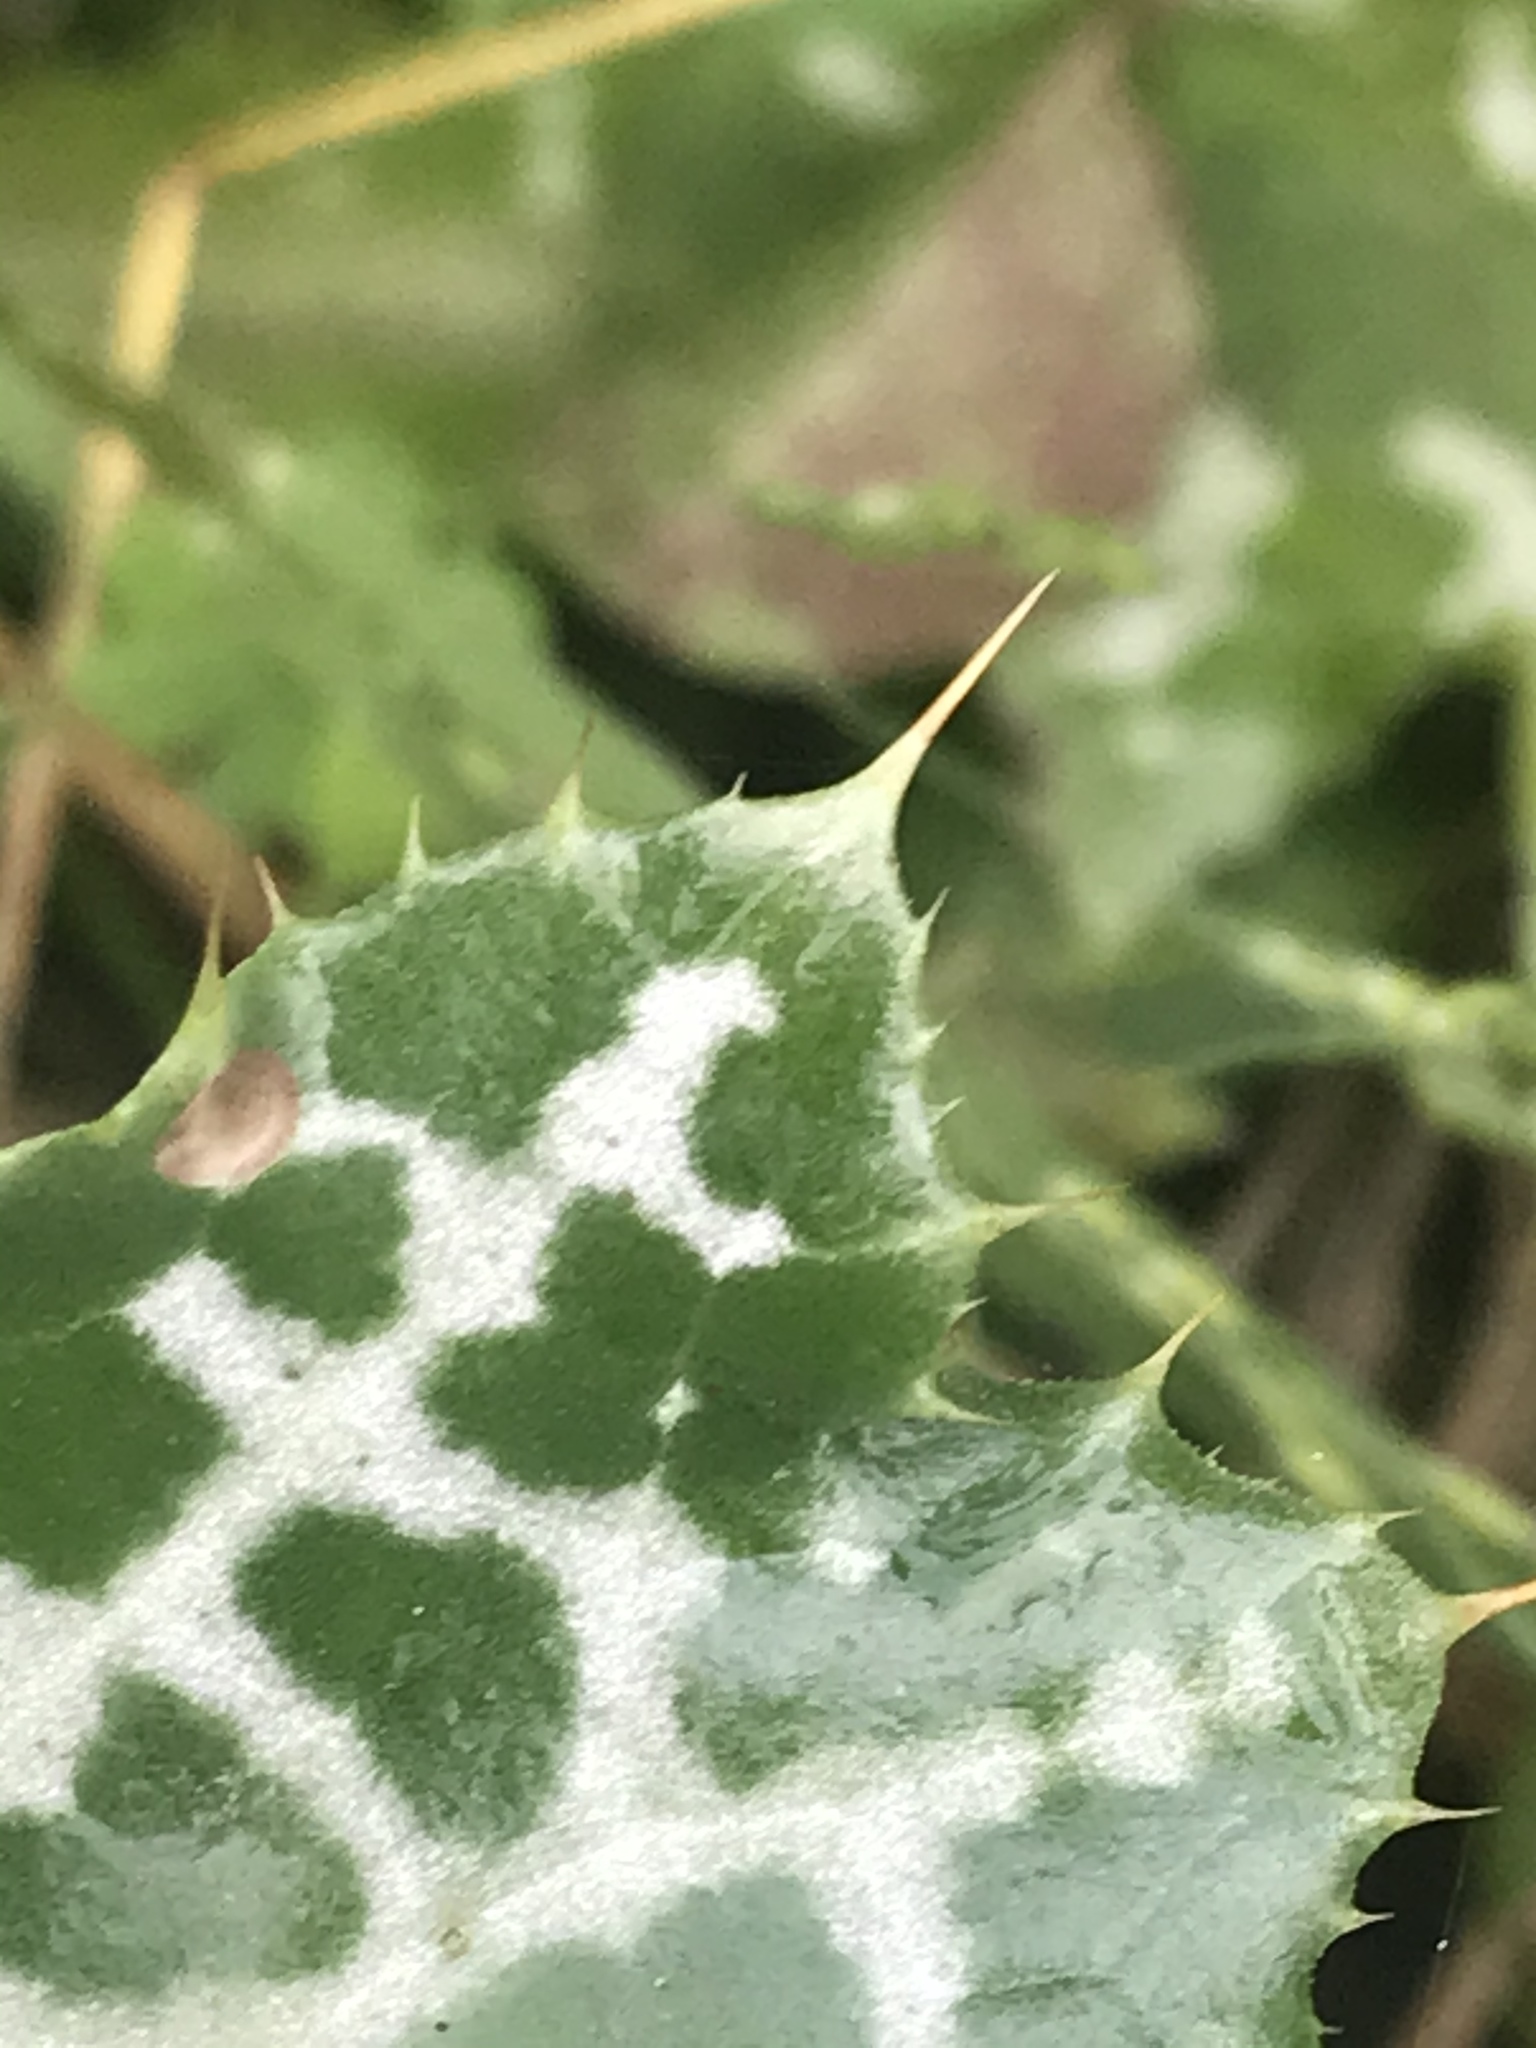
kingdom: Plantae
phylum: Tracheophyta
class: Magnoliopsida
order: Asterales
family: Asteraceae
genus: Silybum
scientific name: Silybum marianum
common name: Milk thistle
